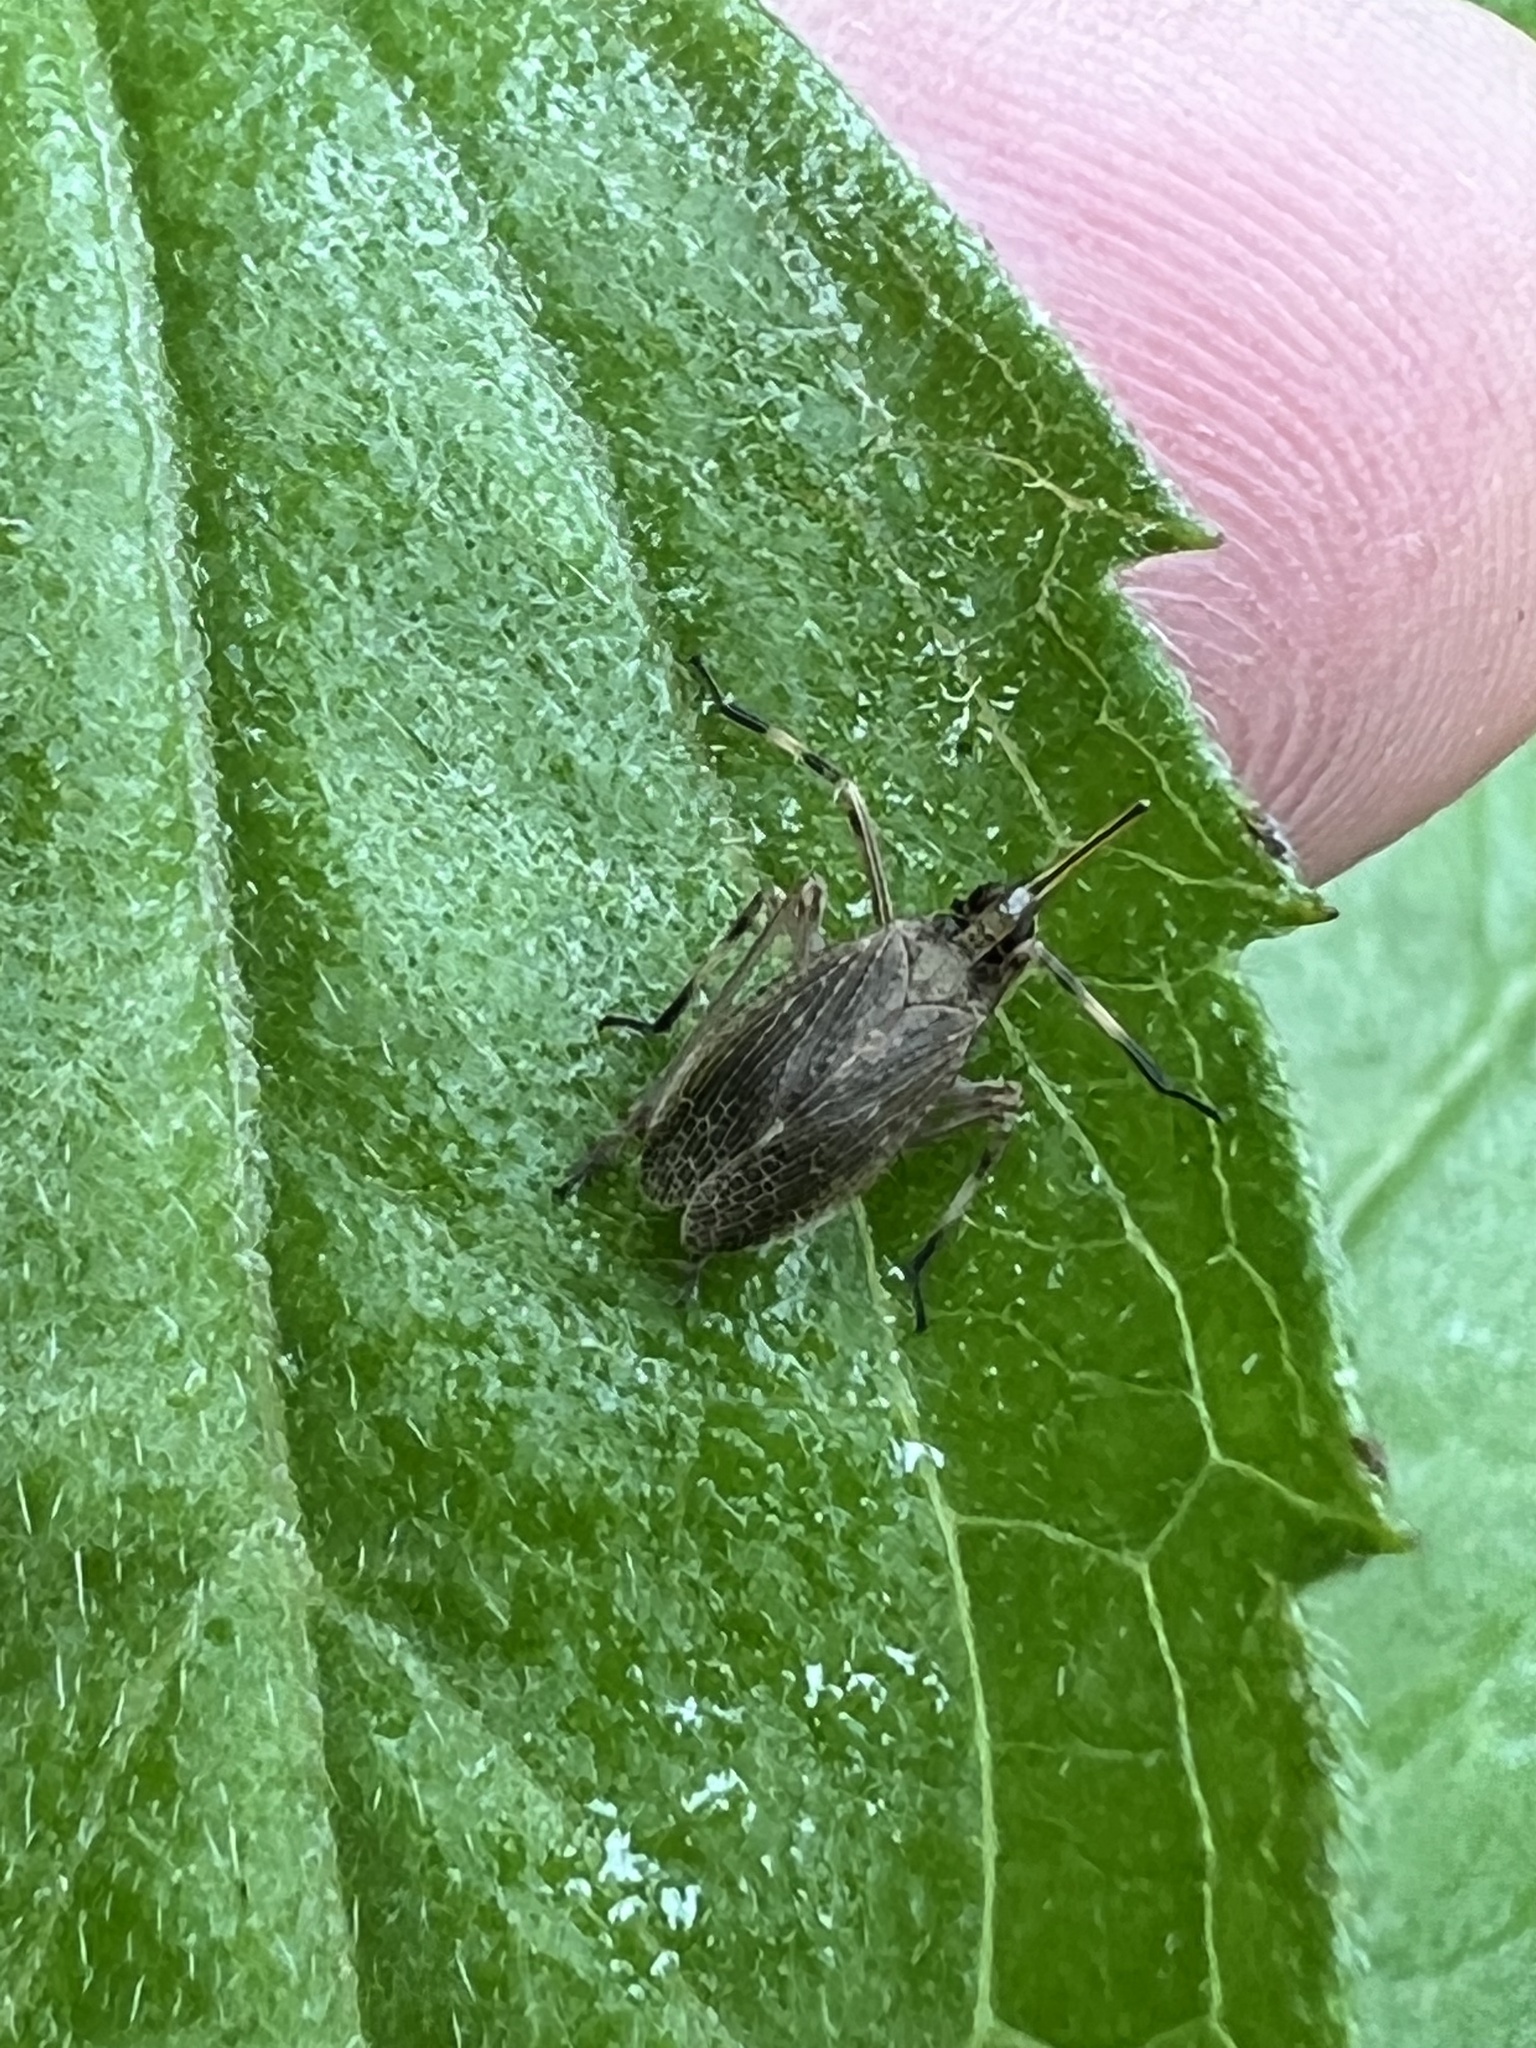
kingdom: Animalia
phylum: Arthropoda
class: Insecta
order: Hemiptera
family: Dictyopharidae
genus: Scolops
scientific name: Scolops sulcipes
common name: Partridge planthopper
